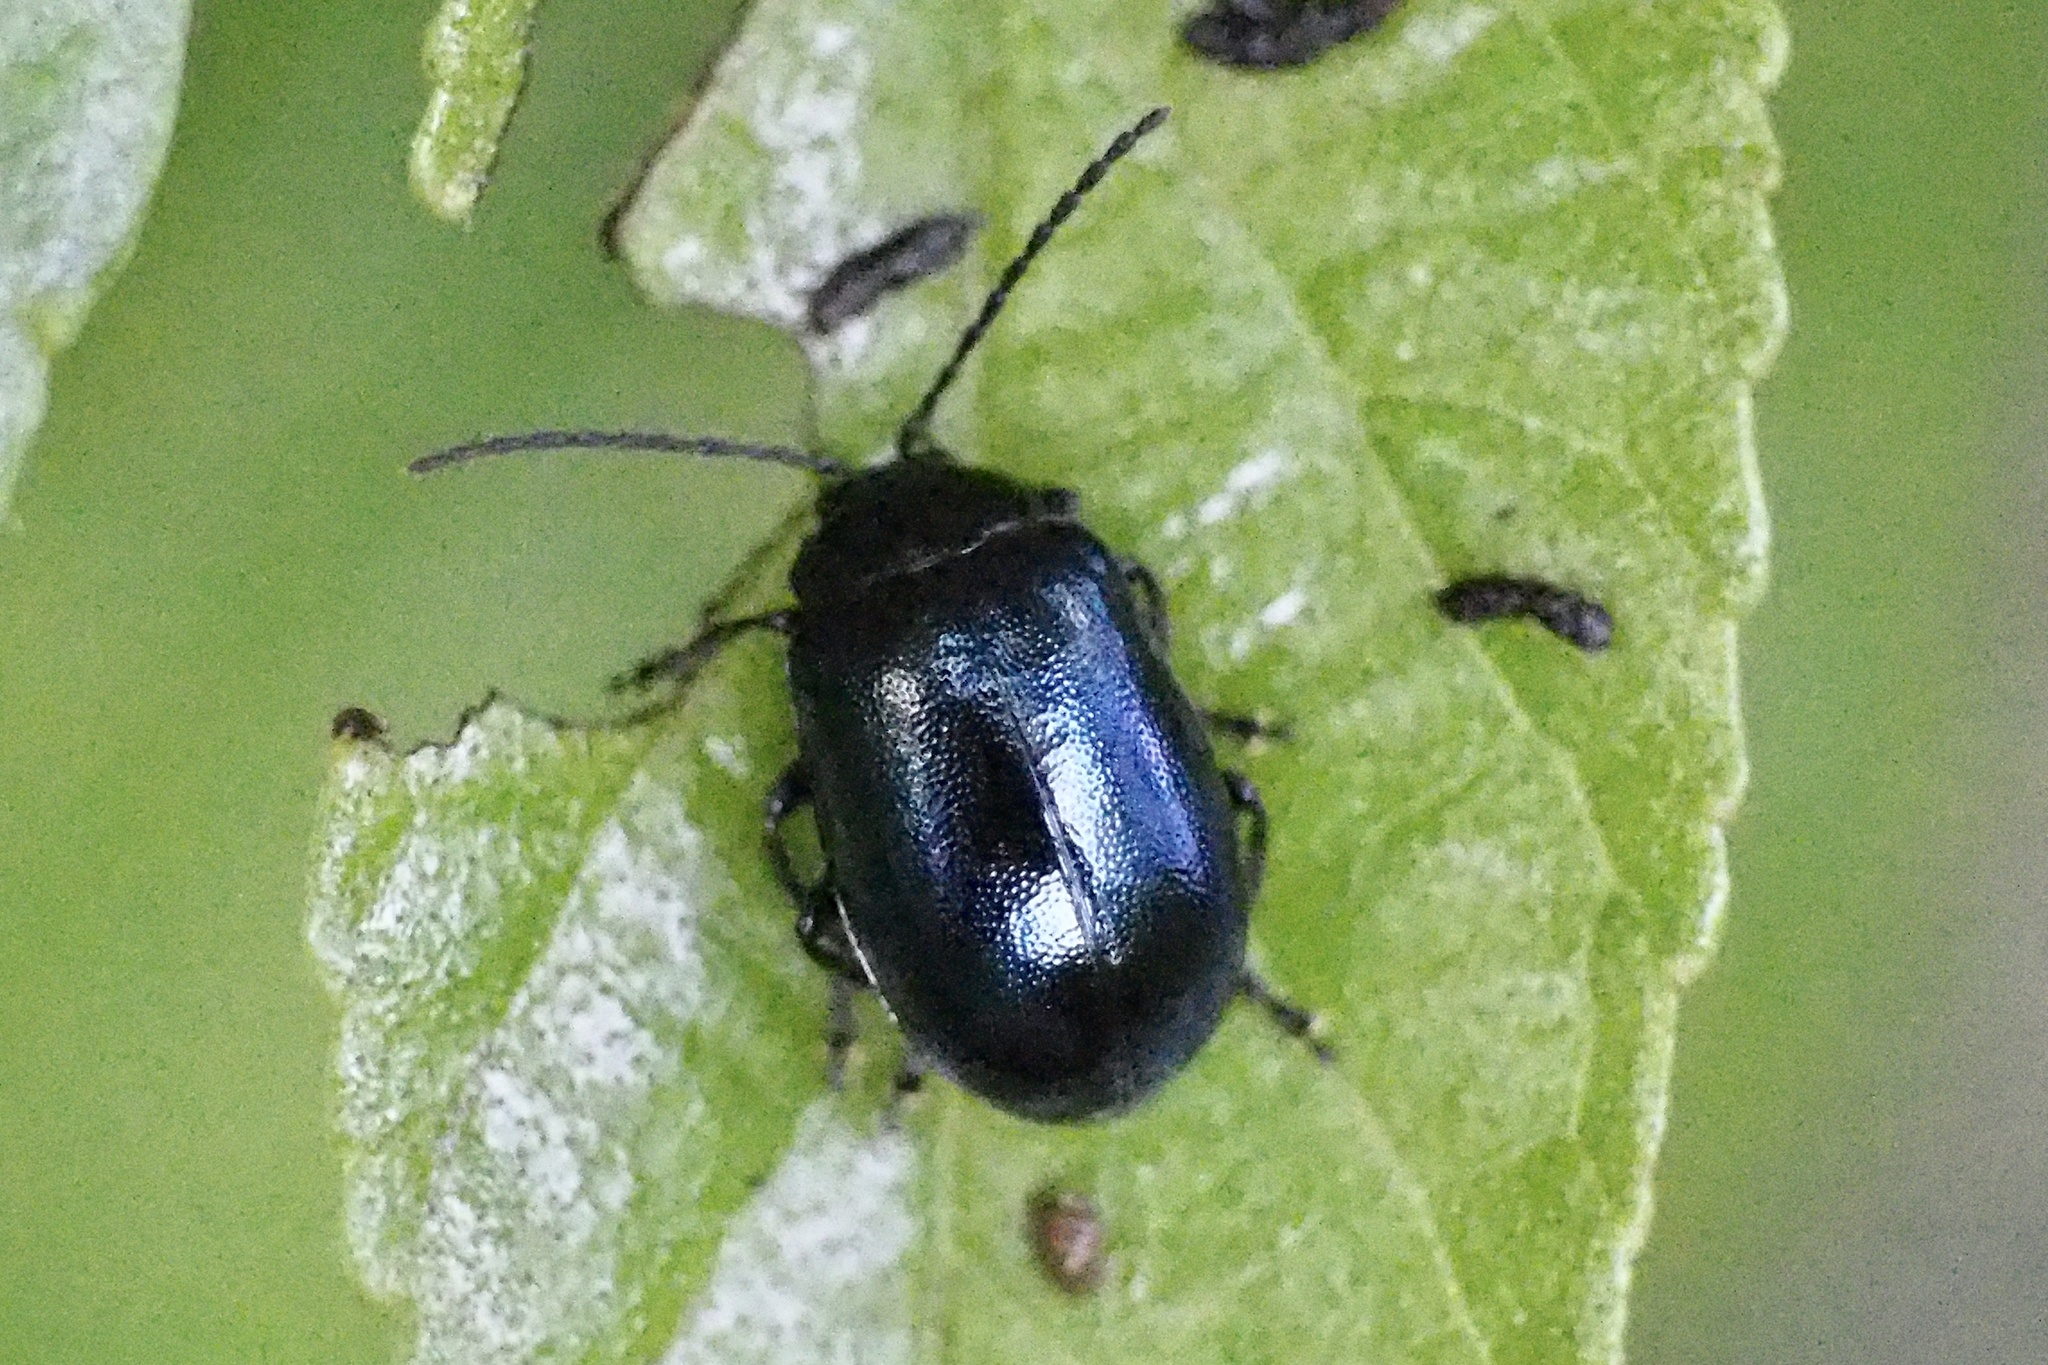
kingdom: Animalia
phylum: Arthropoda
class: Insecta
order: Coleoptera
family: Chrysomelidae
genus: Agelastica
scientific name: Agelastica coerulea
